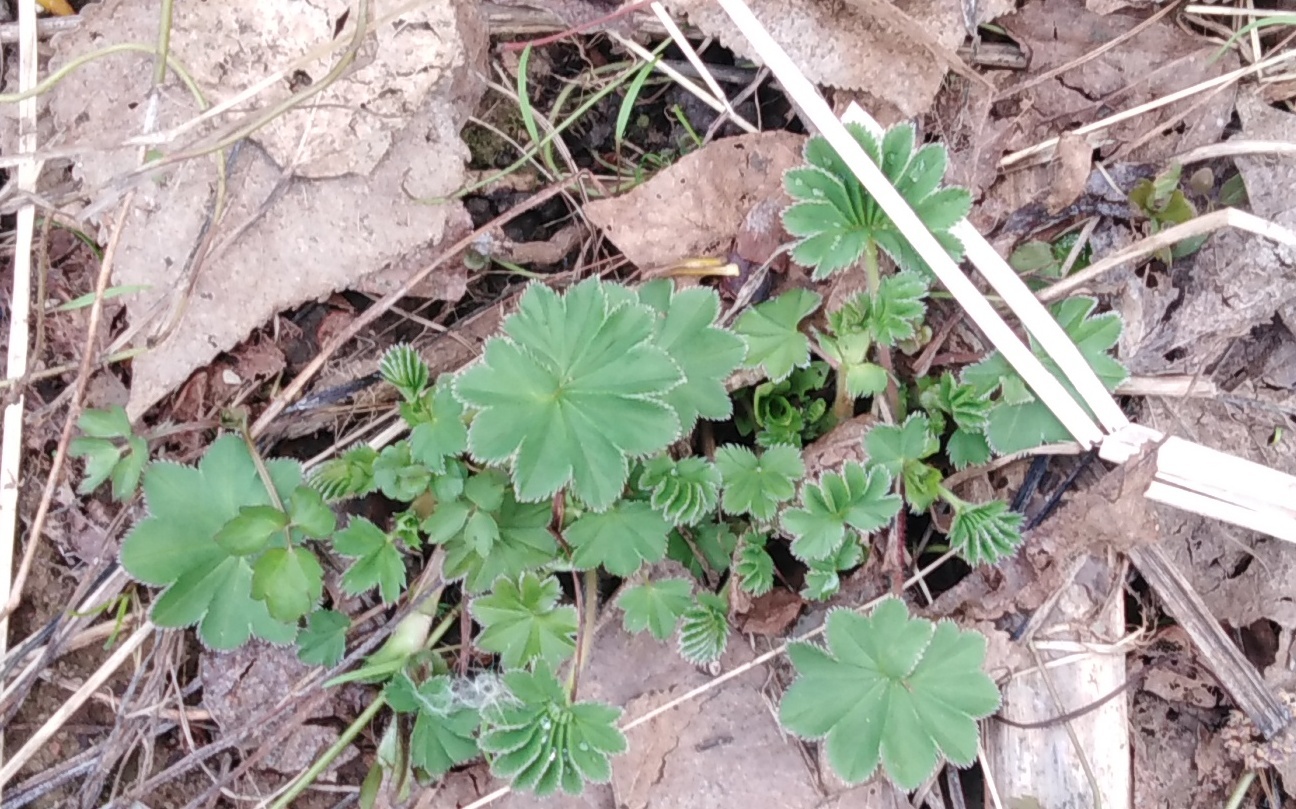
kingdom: Plantae
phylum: Tracheophyta
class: Magnoliopsida
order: Rosales
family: Rosaceae
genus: Alchemilla
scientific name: Alchemilla
